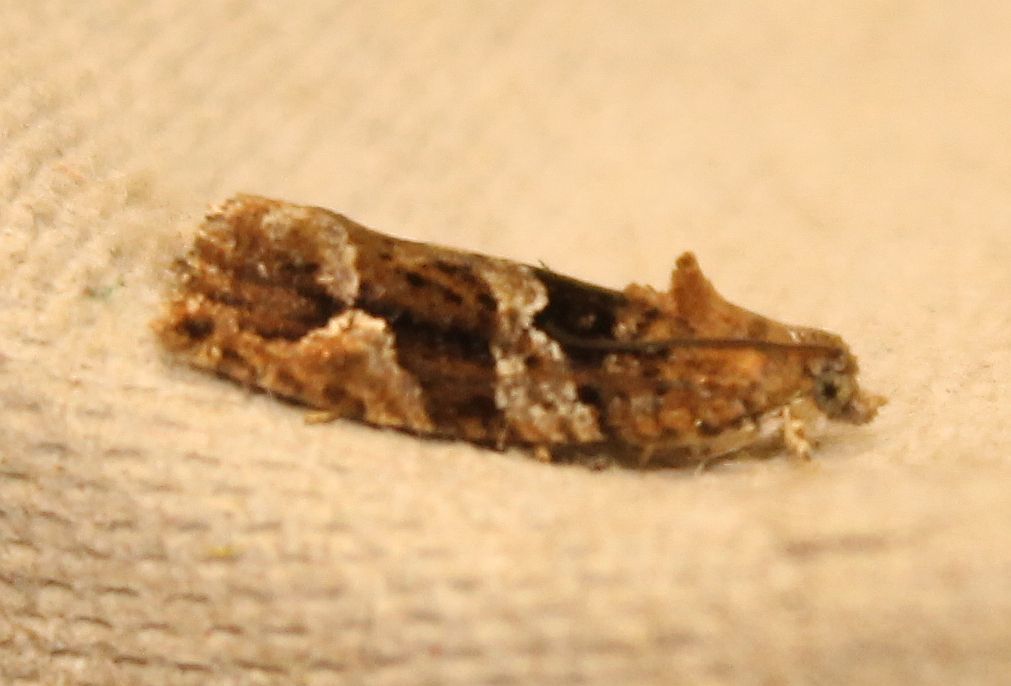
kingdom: Animalia
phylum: Arthropoda
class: Insecta
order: Lepidoptera
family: Tortricidae
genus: Eudemis
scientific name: Eudemis profundana
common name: Diamond-back marble
